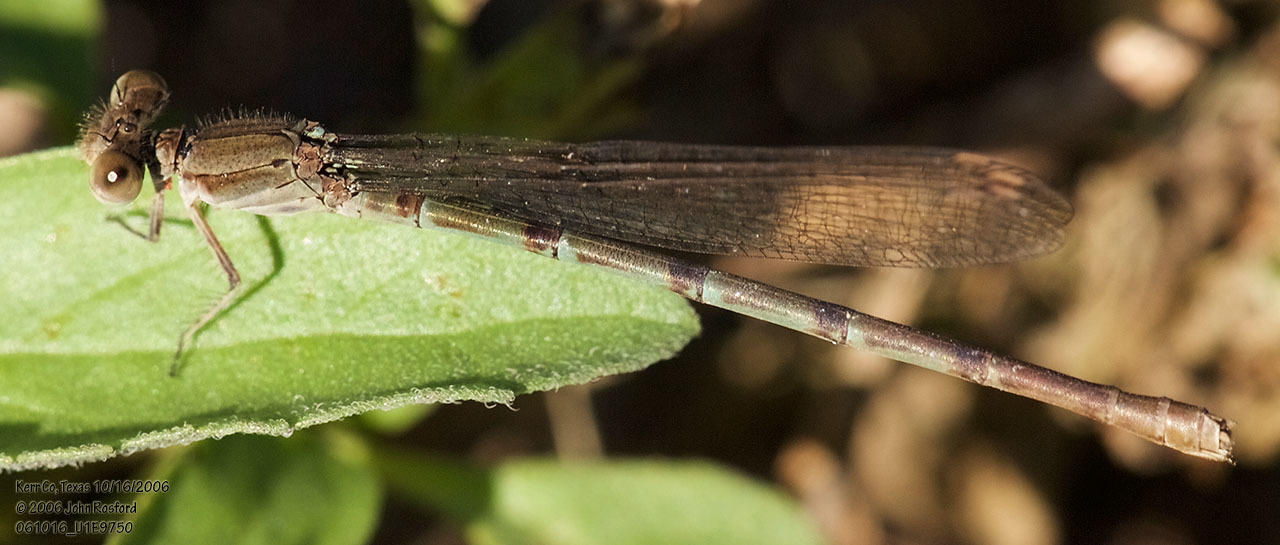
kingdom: Animalia
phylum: Arthropoda
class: Insecta
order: Odonata
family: Coenagrionidae
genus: Argia
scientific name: Argia sedula
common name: Blue-ringed dancer
